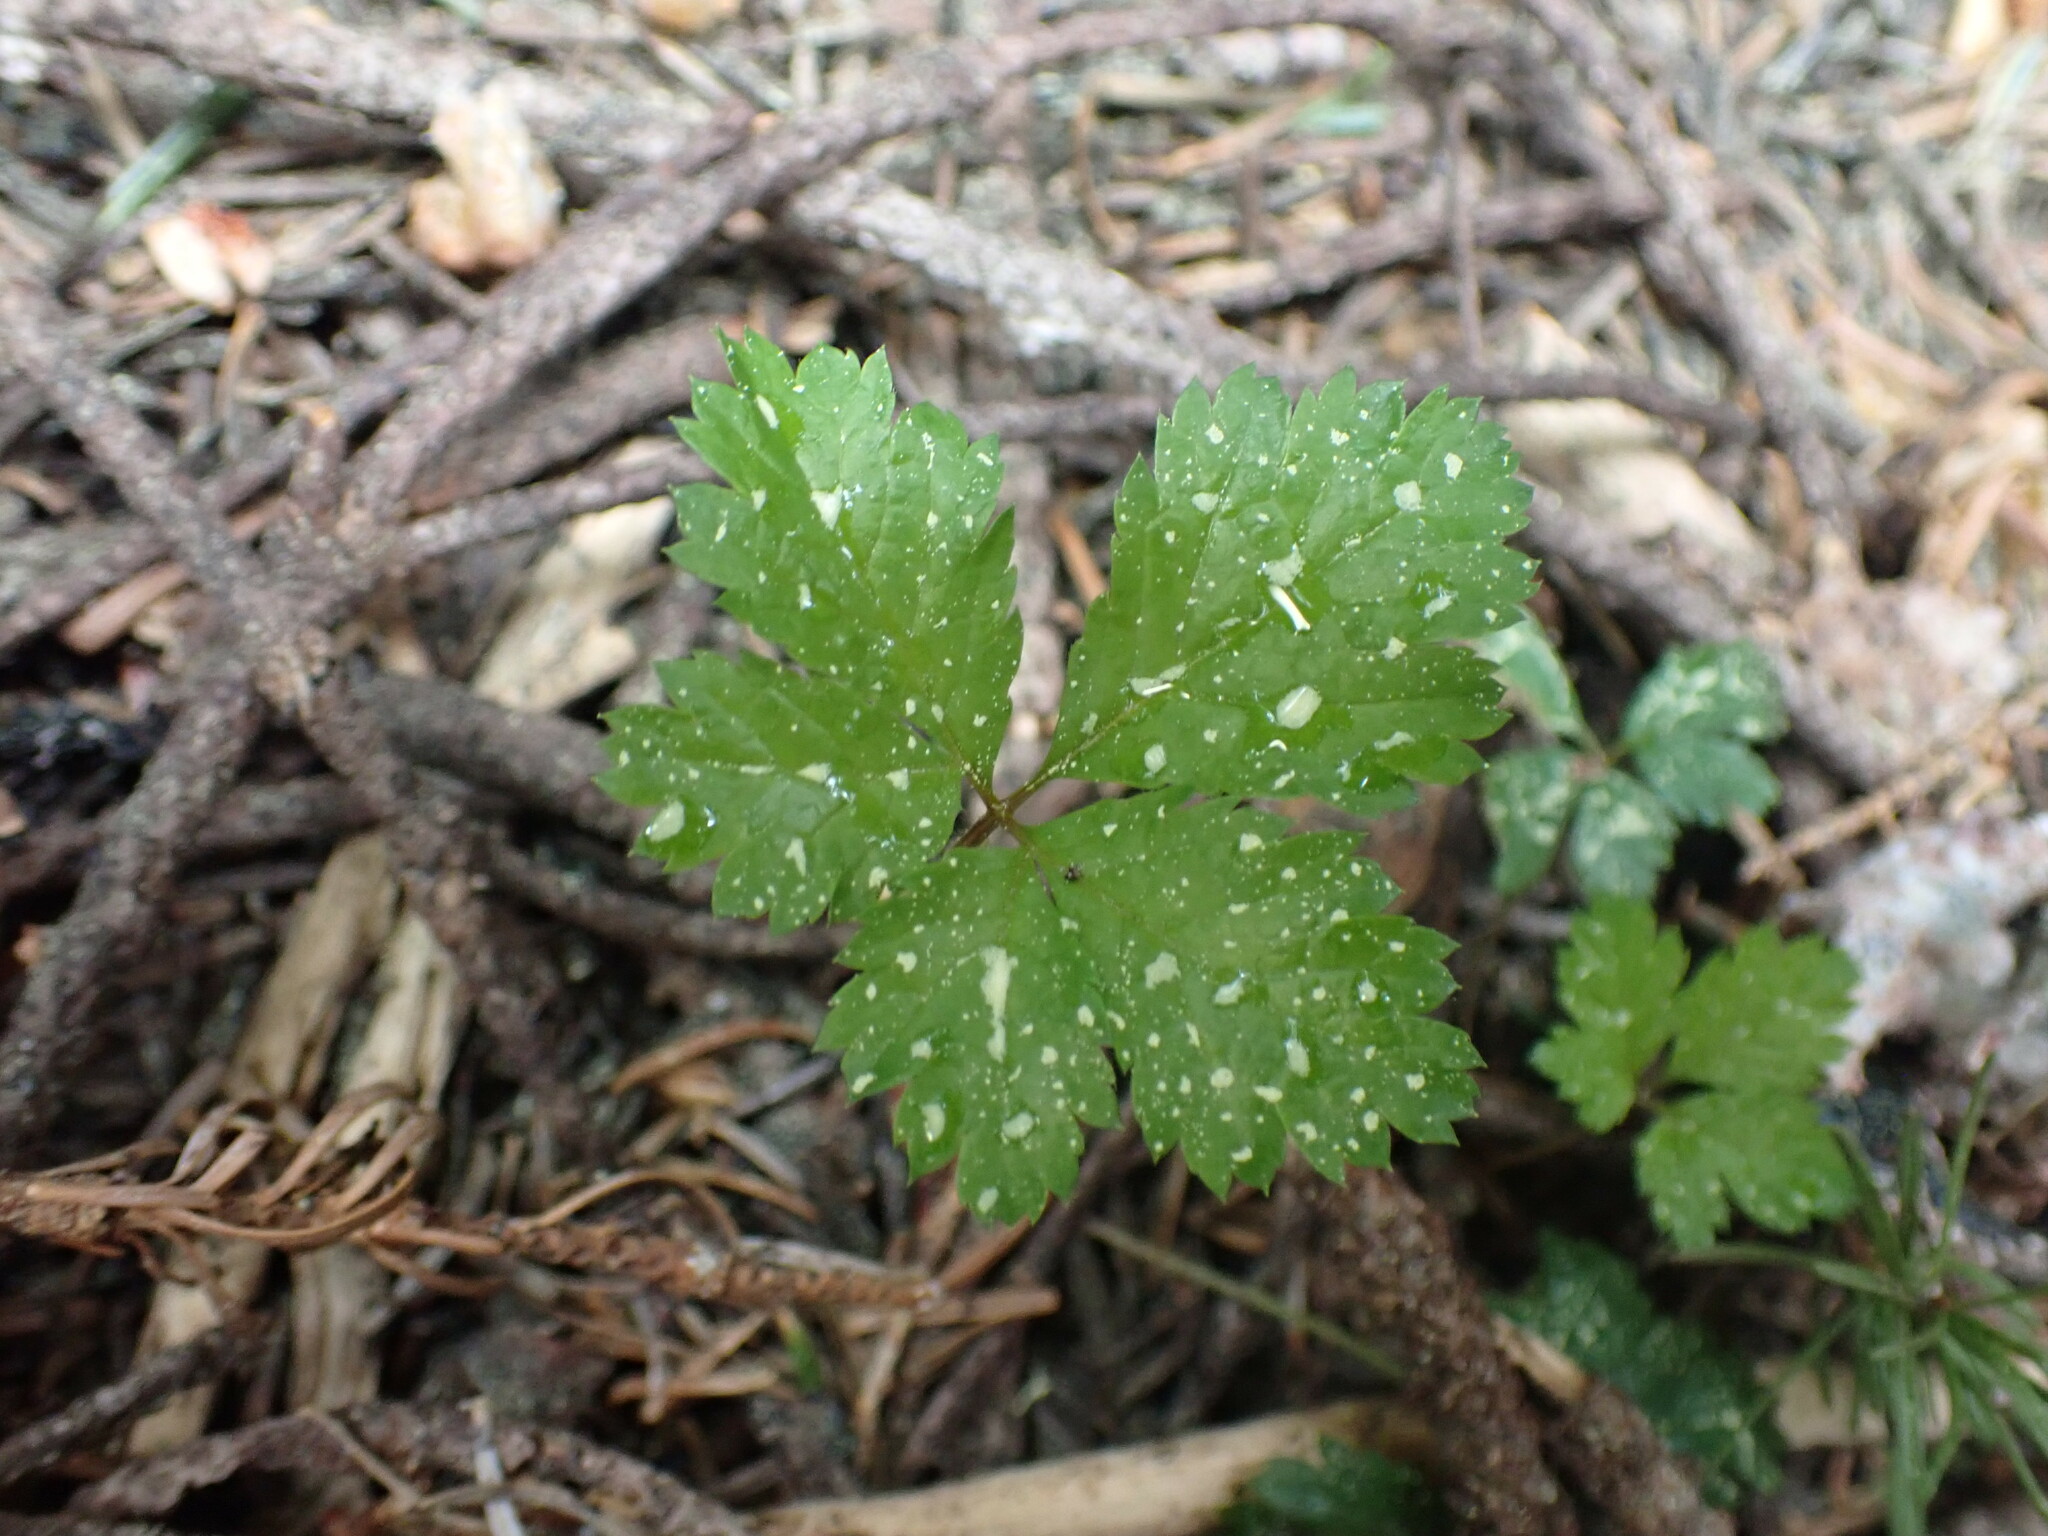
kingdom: Plantae
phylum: Tracheophyta
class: Magnoliopsida
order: Rosales
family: Rosaceae
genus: Rubus
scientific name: Rubus pedatus
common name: Creeping raspberry
